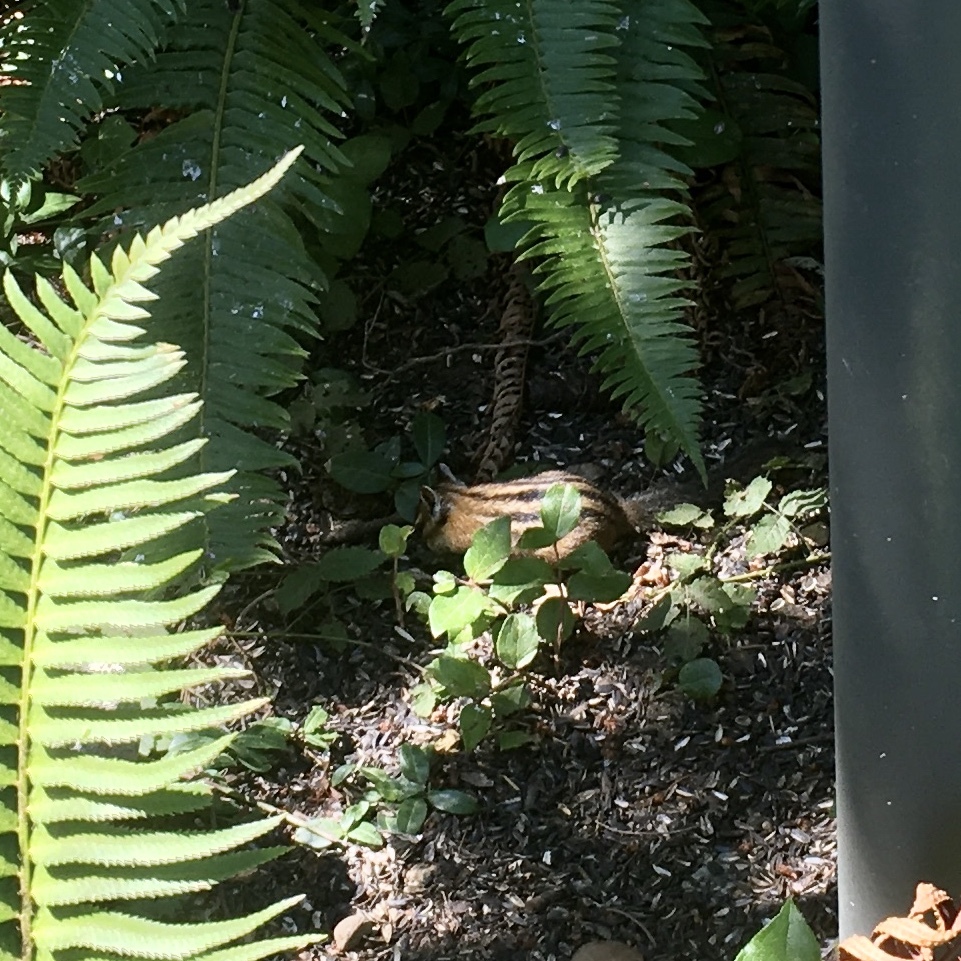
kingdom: Animalia
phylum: Chordata
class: Mammalia
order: Rodentia
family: Sciuridae
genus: Tamias
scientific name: Tamias townsendii
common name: Townsend's chipmunk
